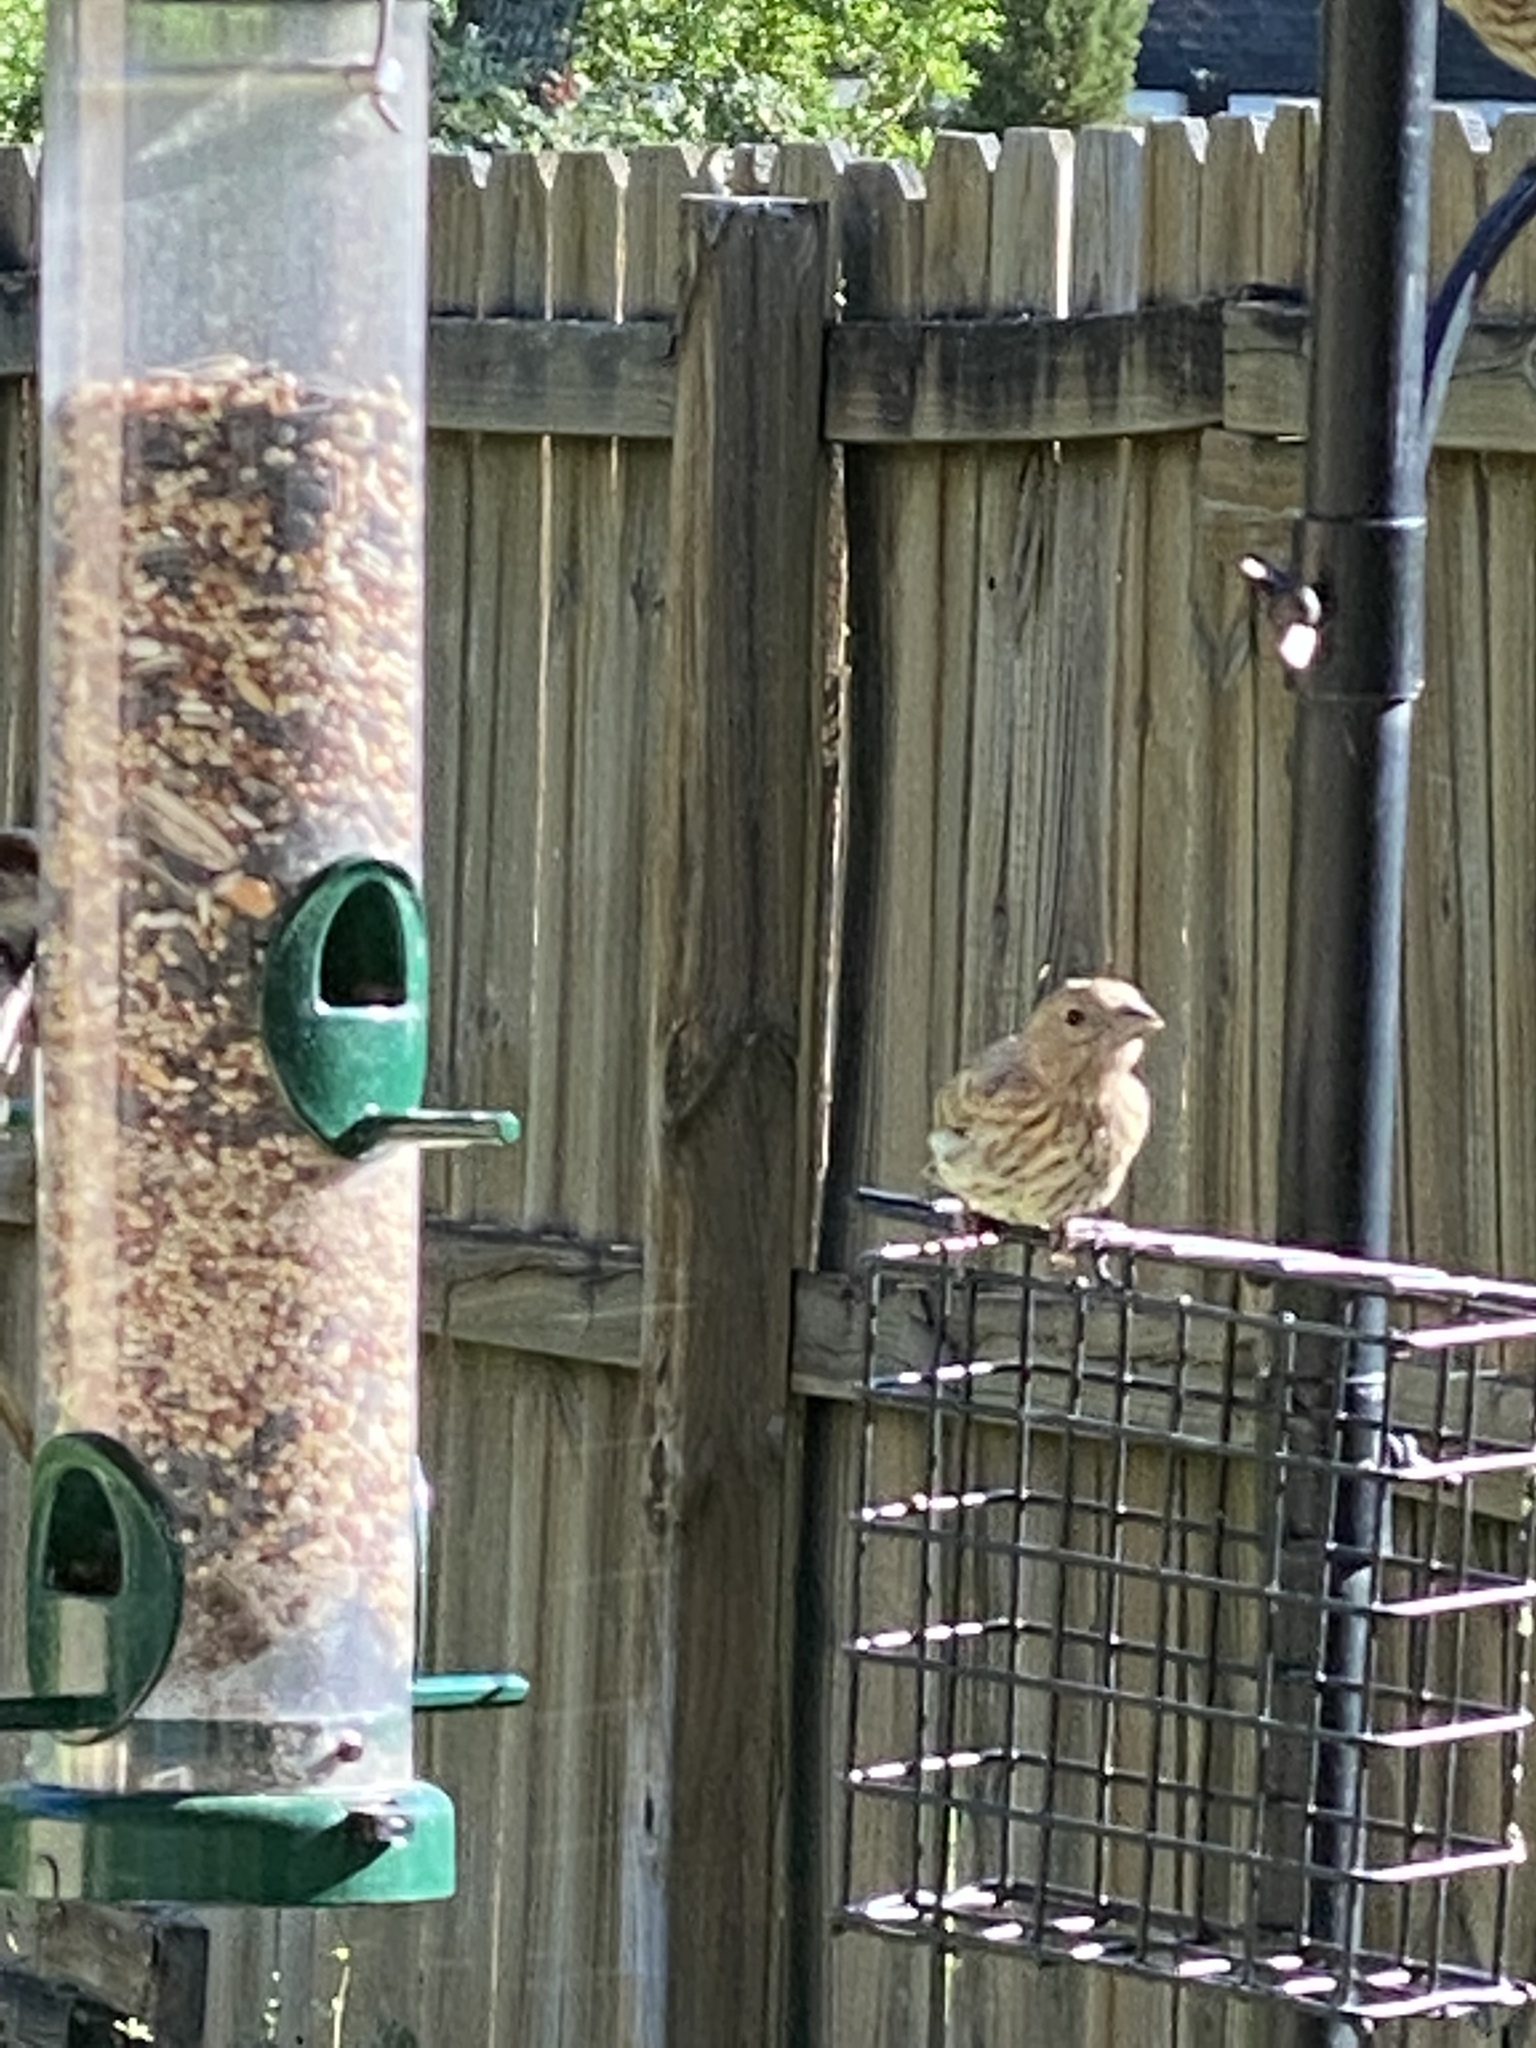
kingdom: Animalia
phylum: Chordata
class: Aves
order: Passeriformes
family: Fringillidae
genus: Haemorhous
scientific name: Haemorhous mexicanus
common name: House finch
